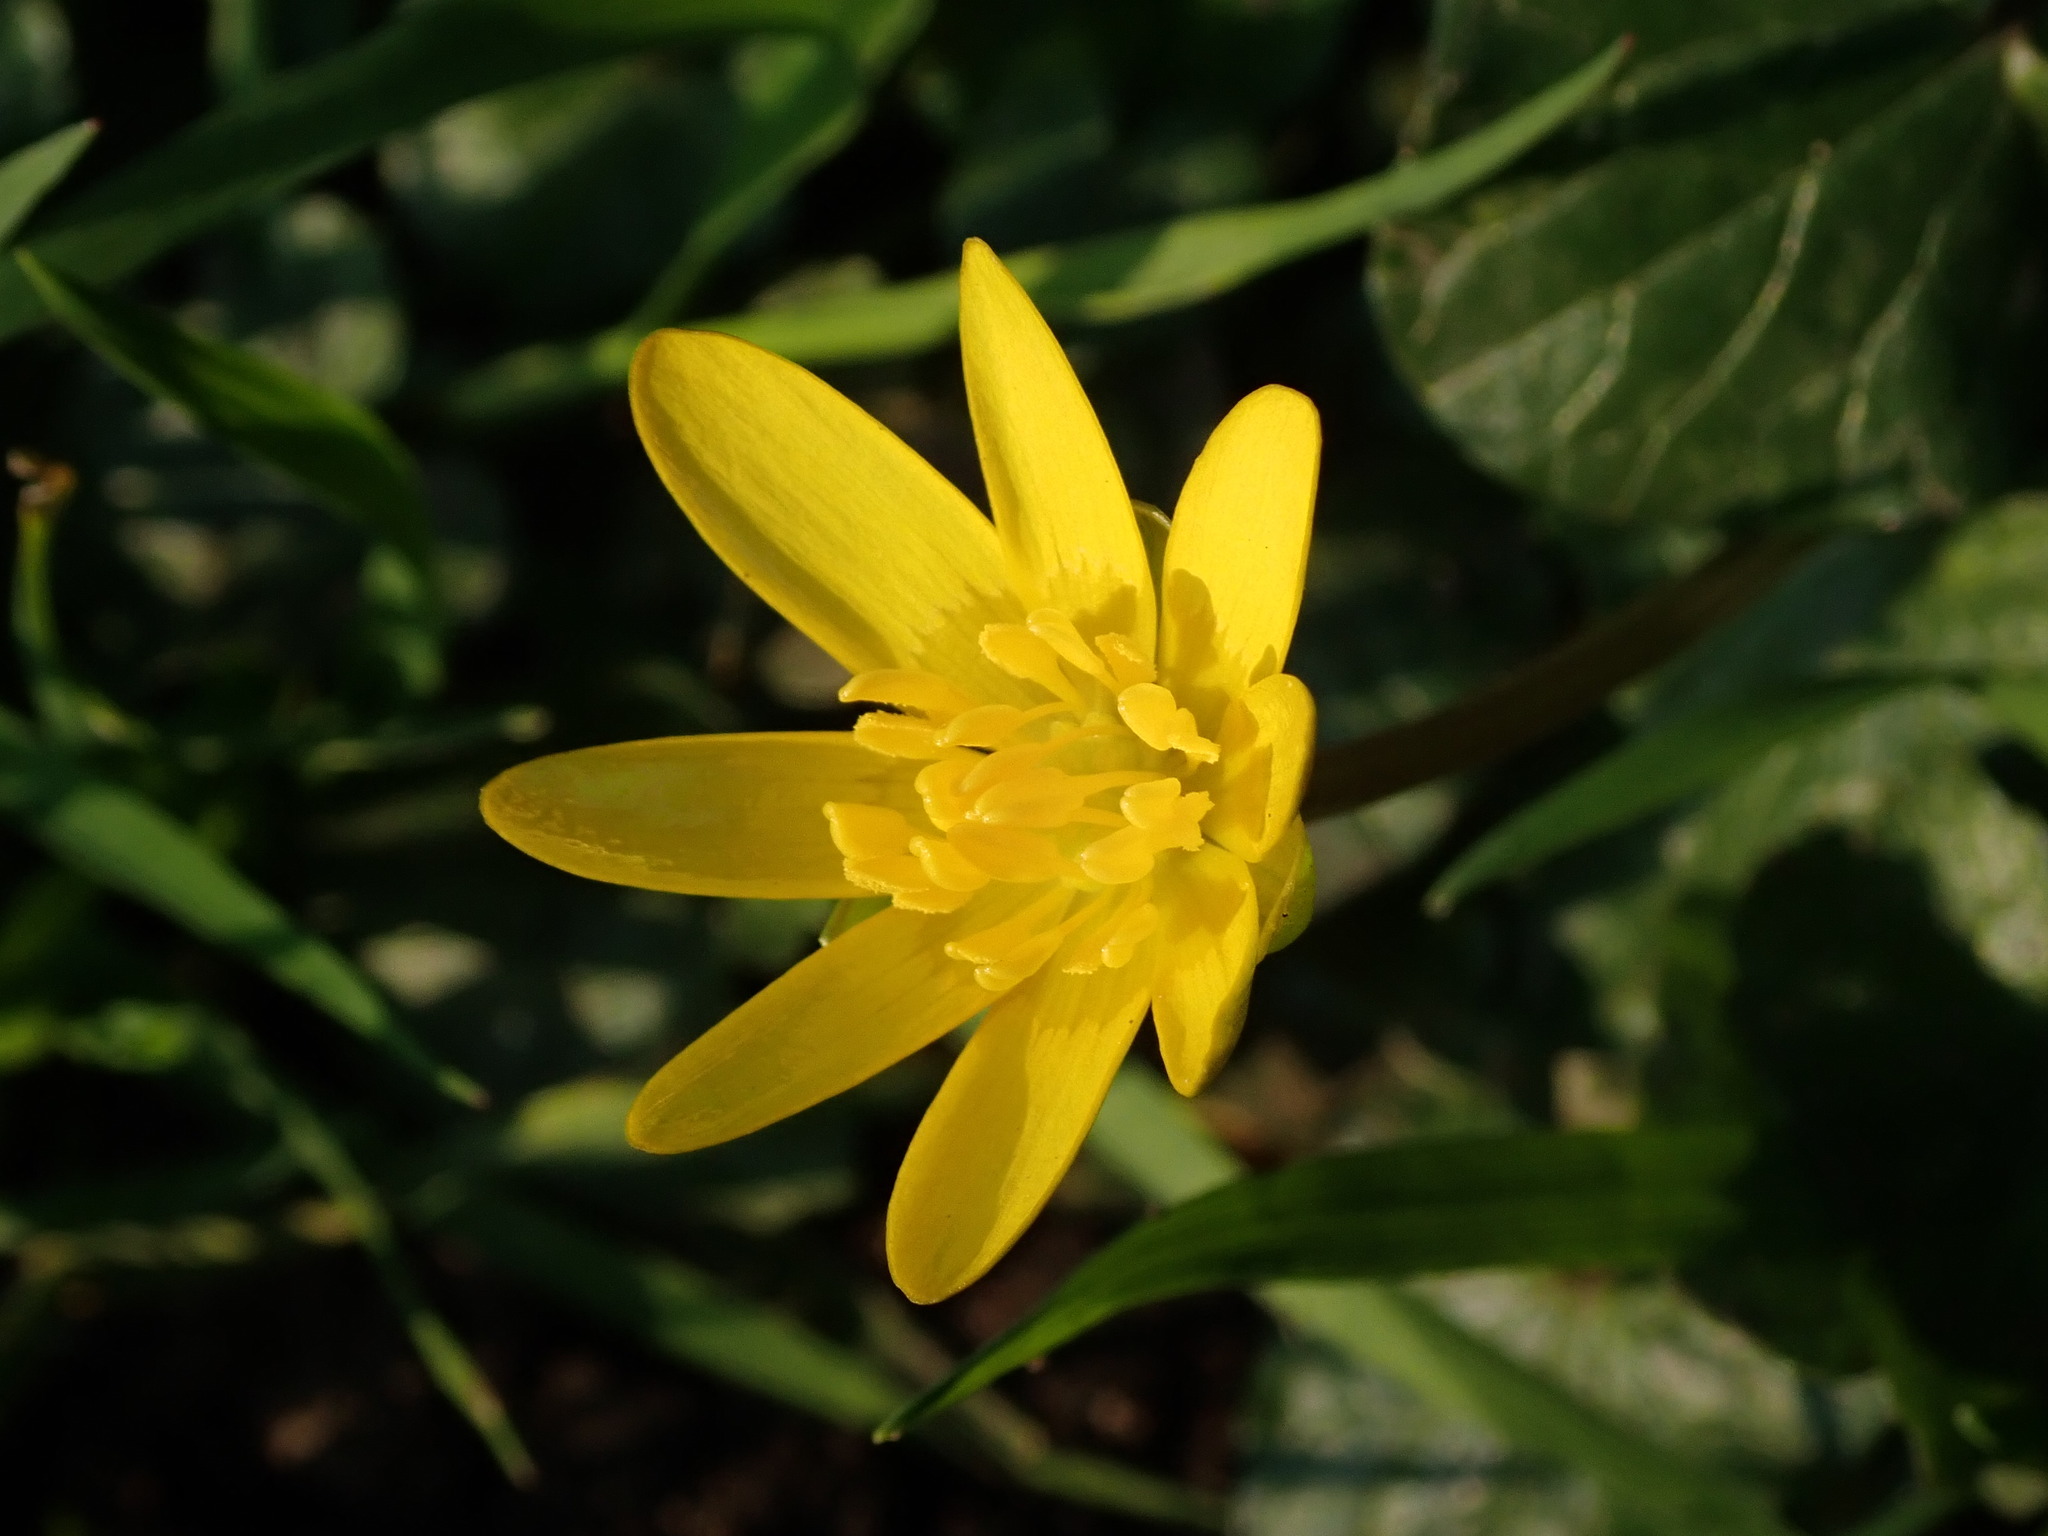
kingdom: Plantae
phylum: Tracheophyta
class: Magnoliopsida
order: Ranunculales
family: Ranunculaceae
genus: Ficaria
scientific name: Ficaria verna
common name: Lesser celandine
